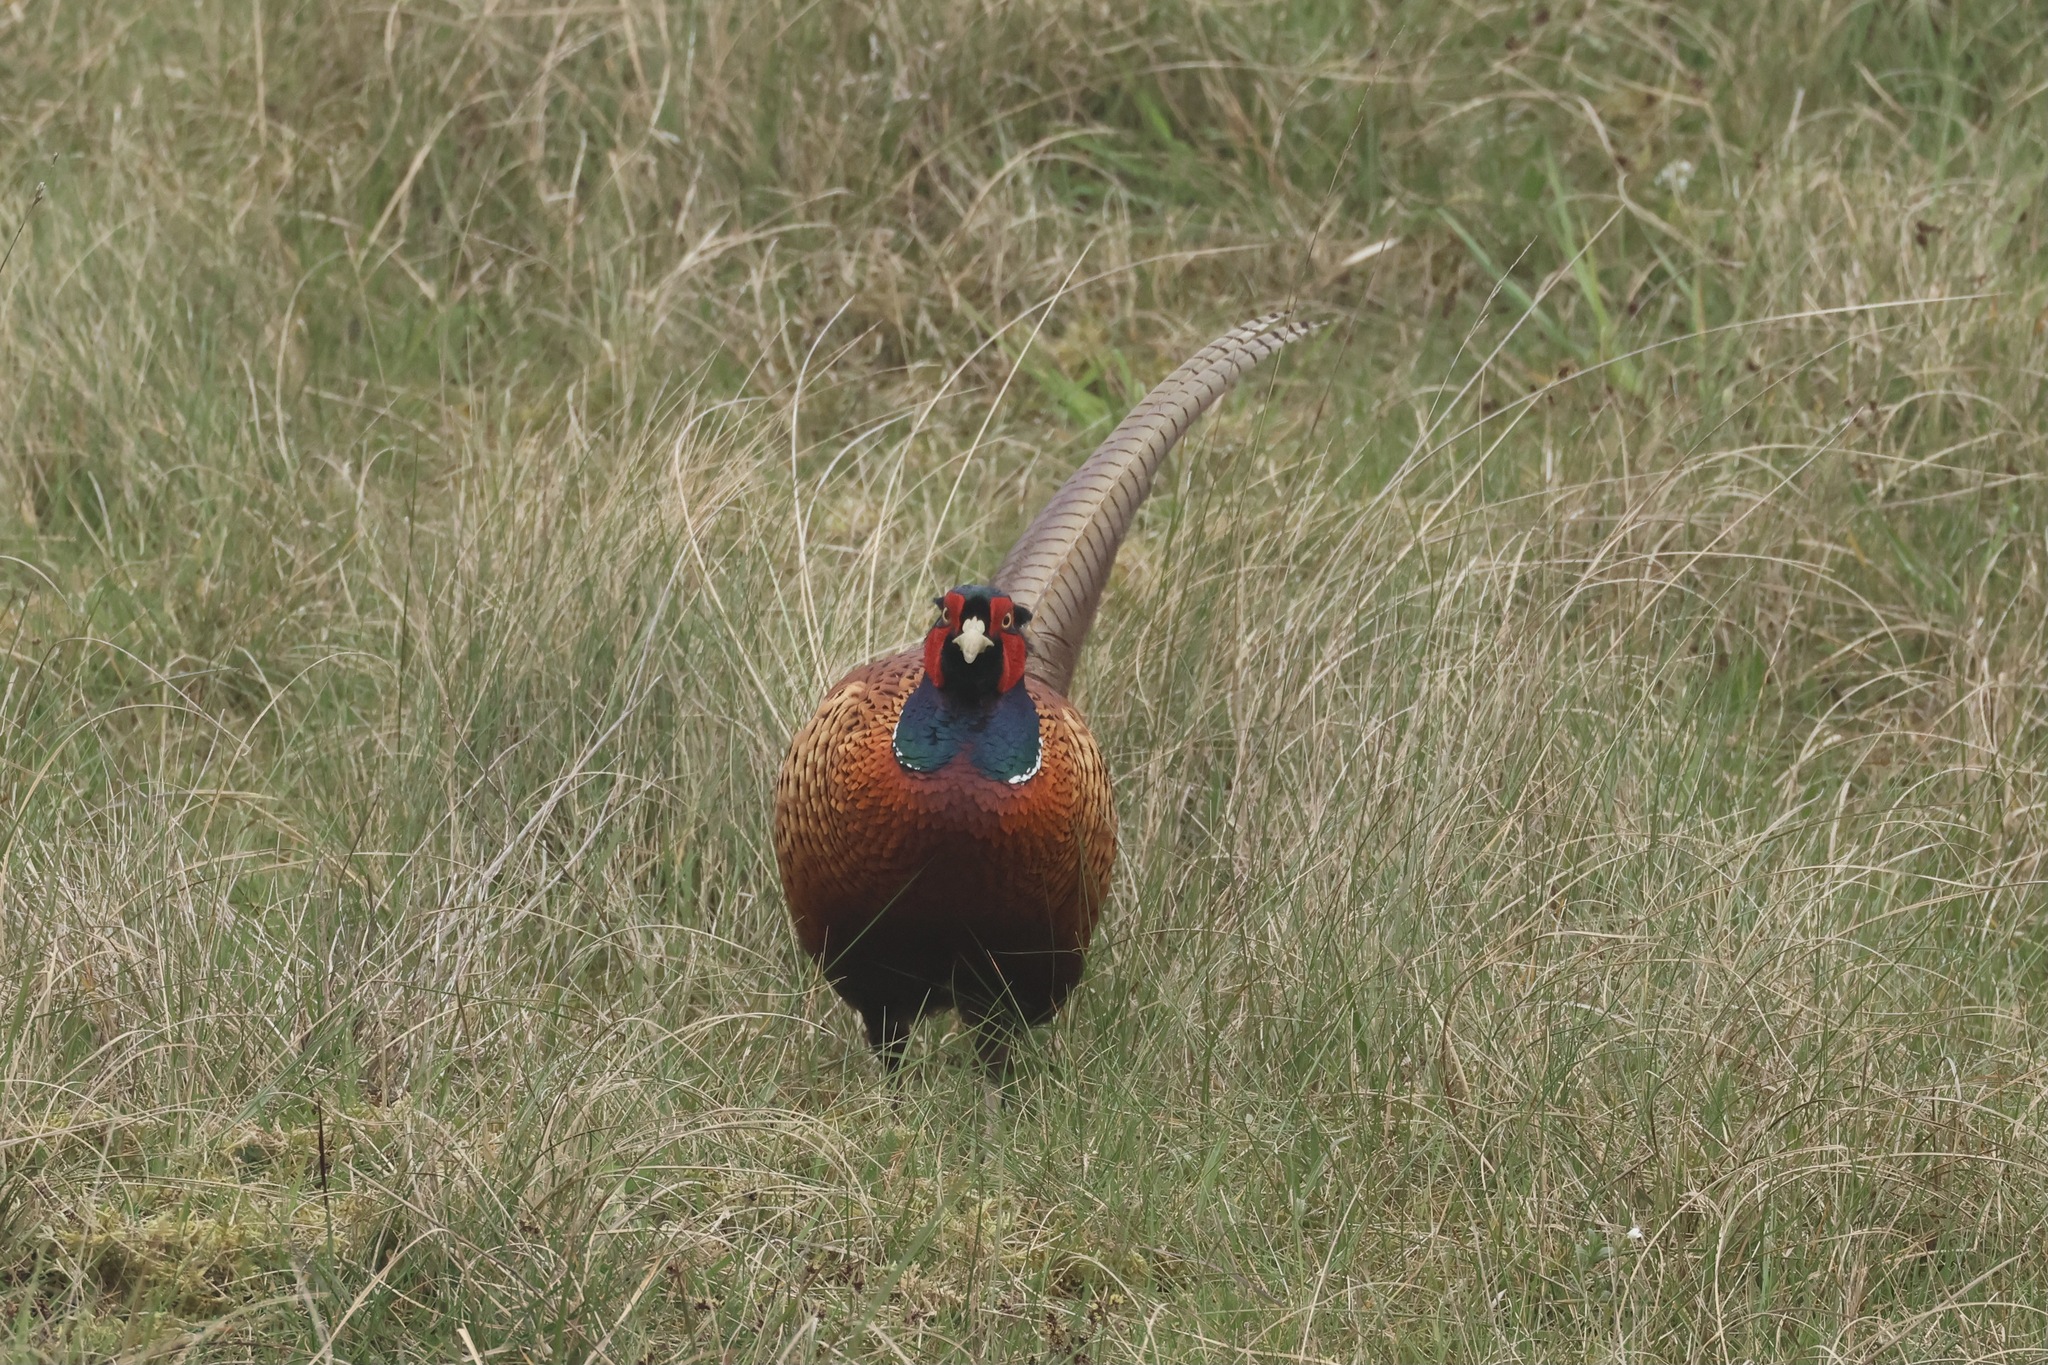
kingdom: Animalia
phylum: Chordata
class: Aves
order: Galliformes
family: Phasianidae
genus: Phasianus
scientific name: Phasianus colchicus
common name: Common pheasant
